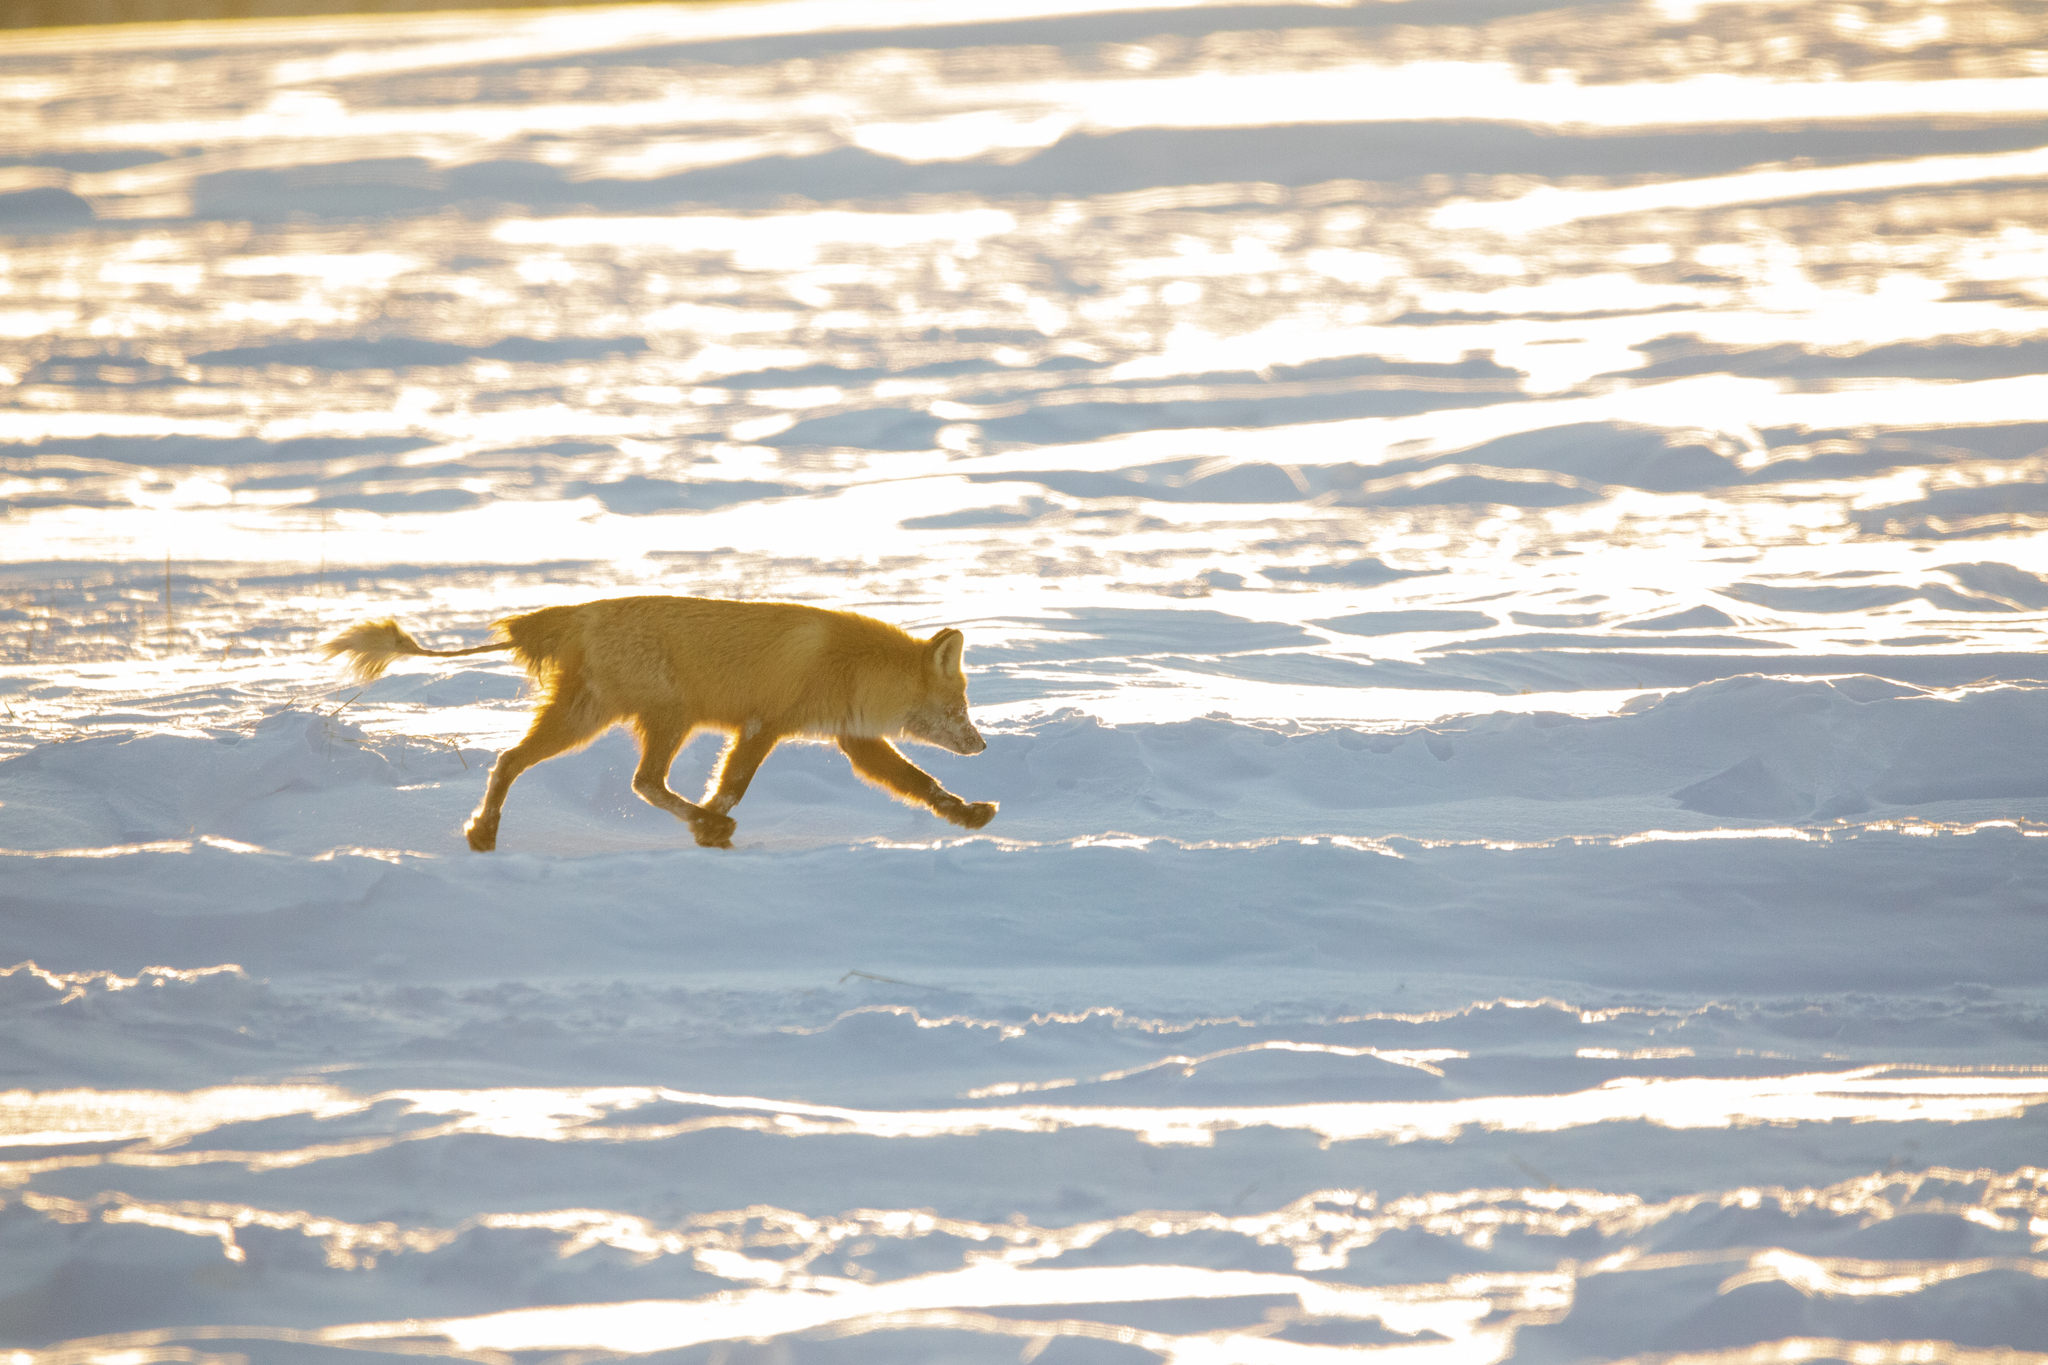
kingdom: Animalia
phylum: Chordata
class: Mammalia
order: Carnivora
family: Canidae
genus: Vulpes
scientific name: Vulpes vulpes
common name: Red fox
